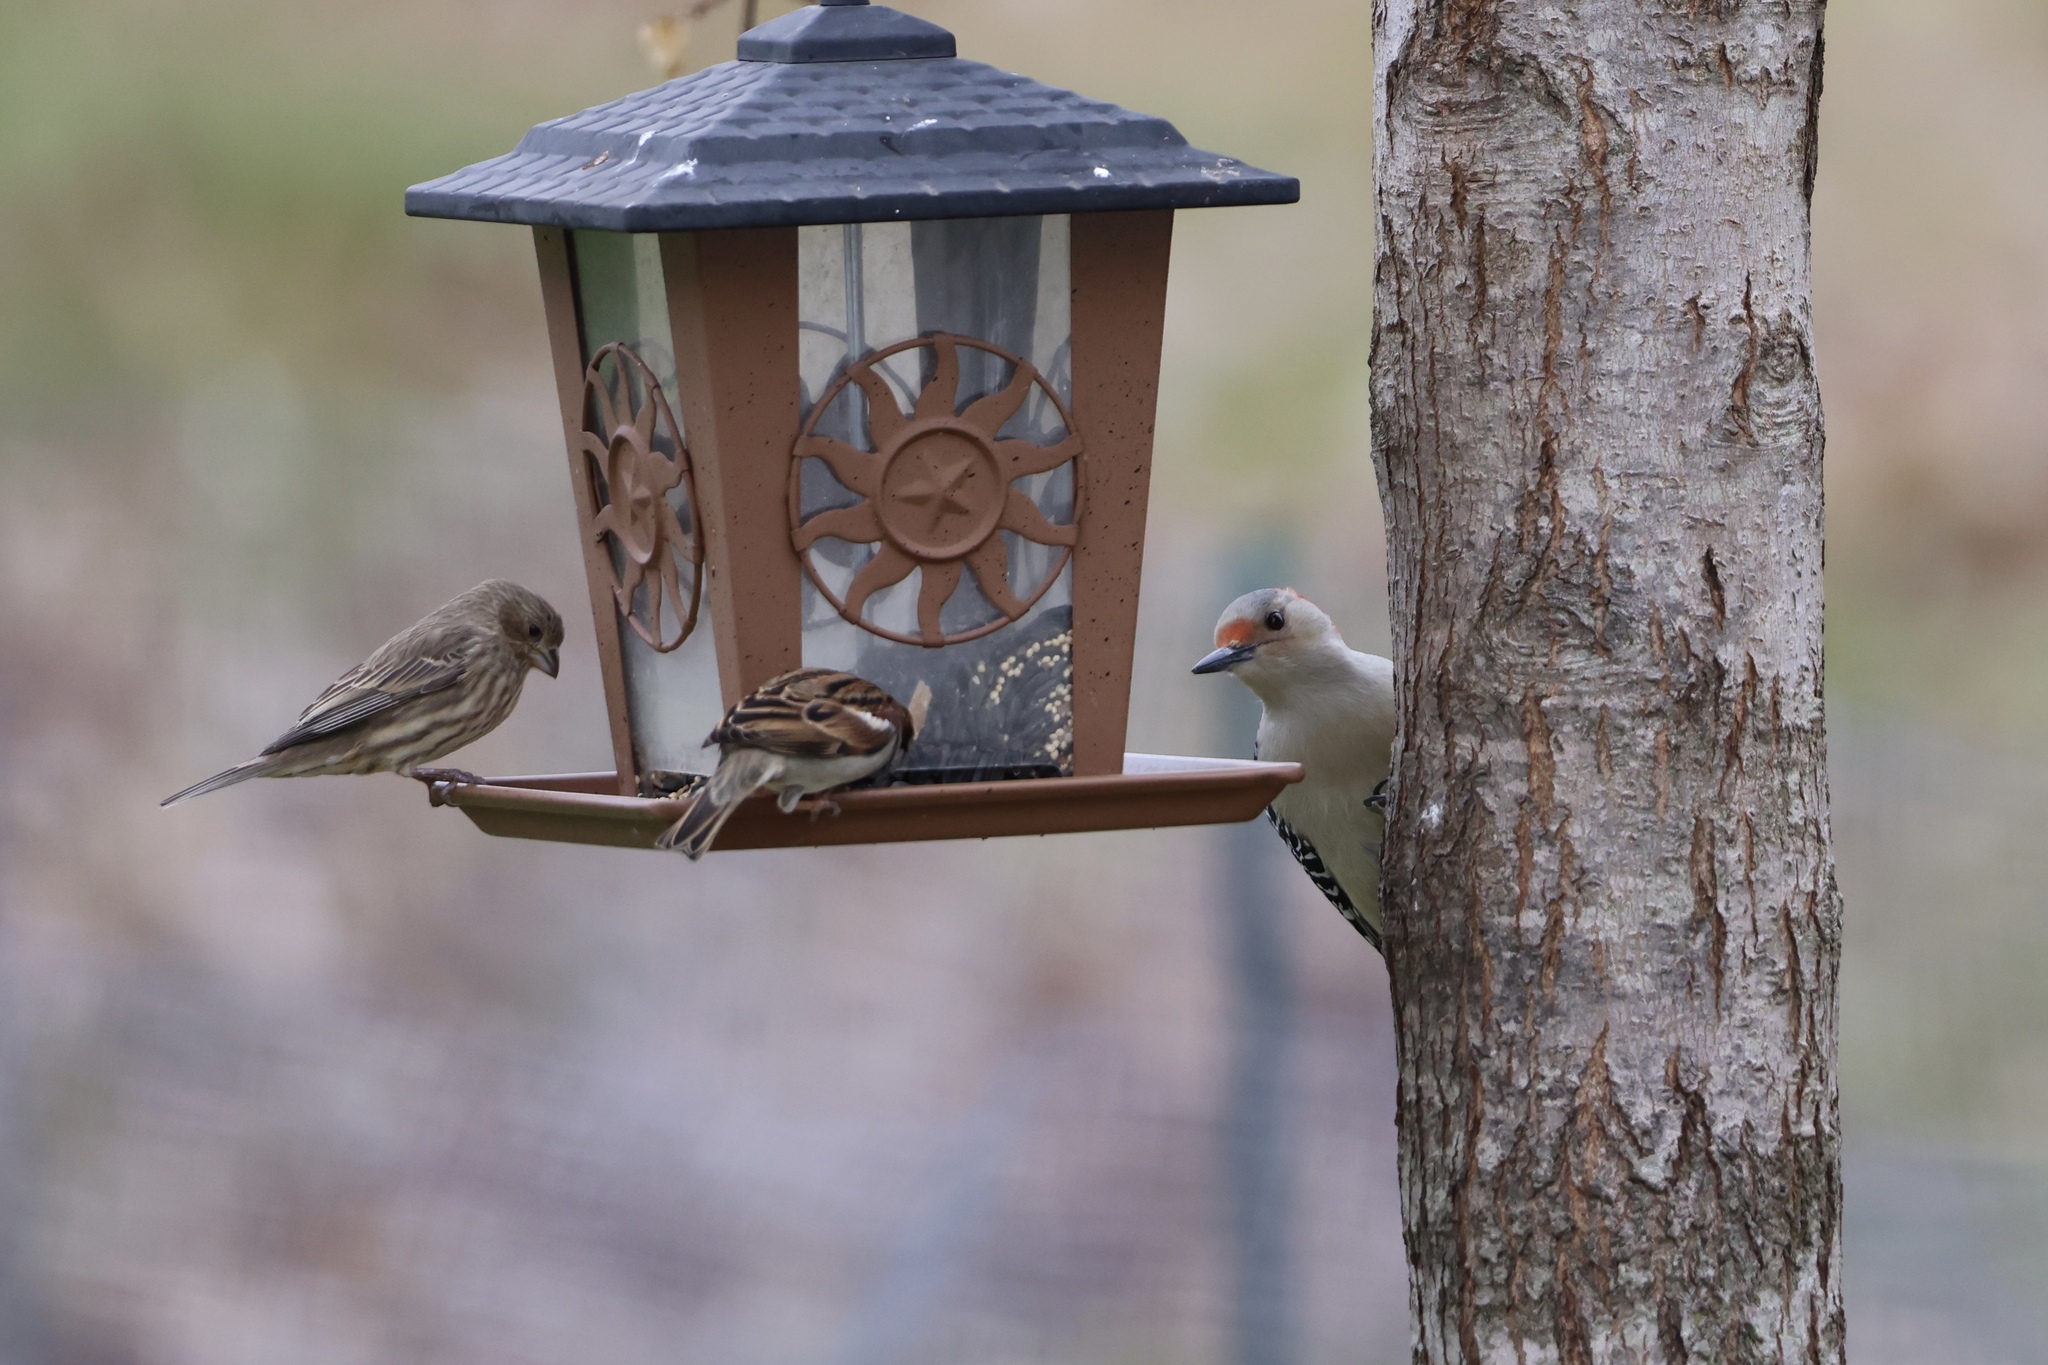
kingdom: Animalia
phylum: Chordata
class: Aves
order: Passeriformes
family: Fringillidae
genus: Haemorhous
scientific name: Haemorhous mexicanus
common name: House finch
